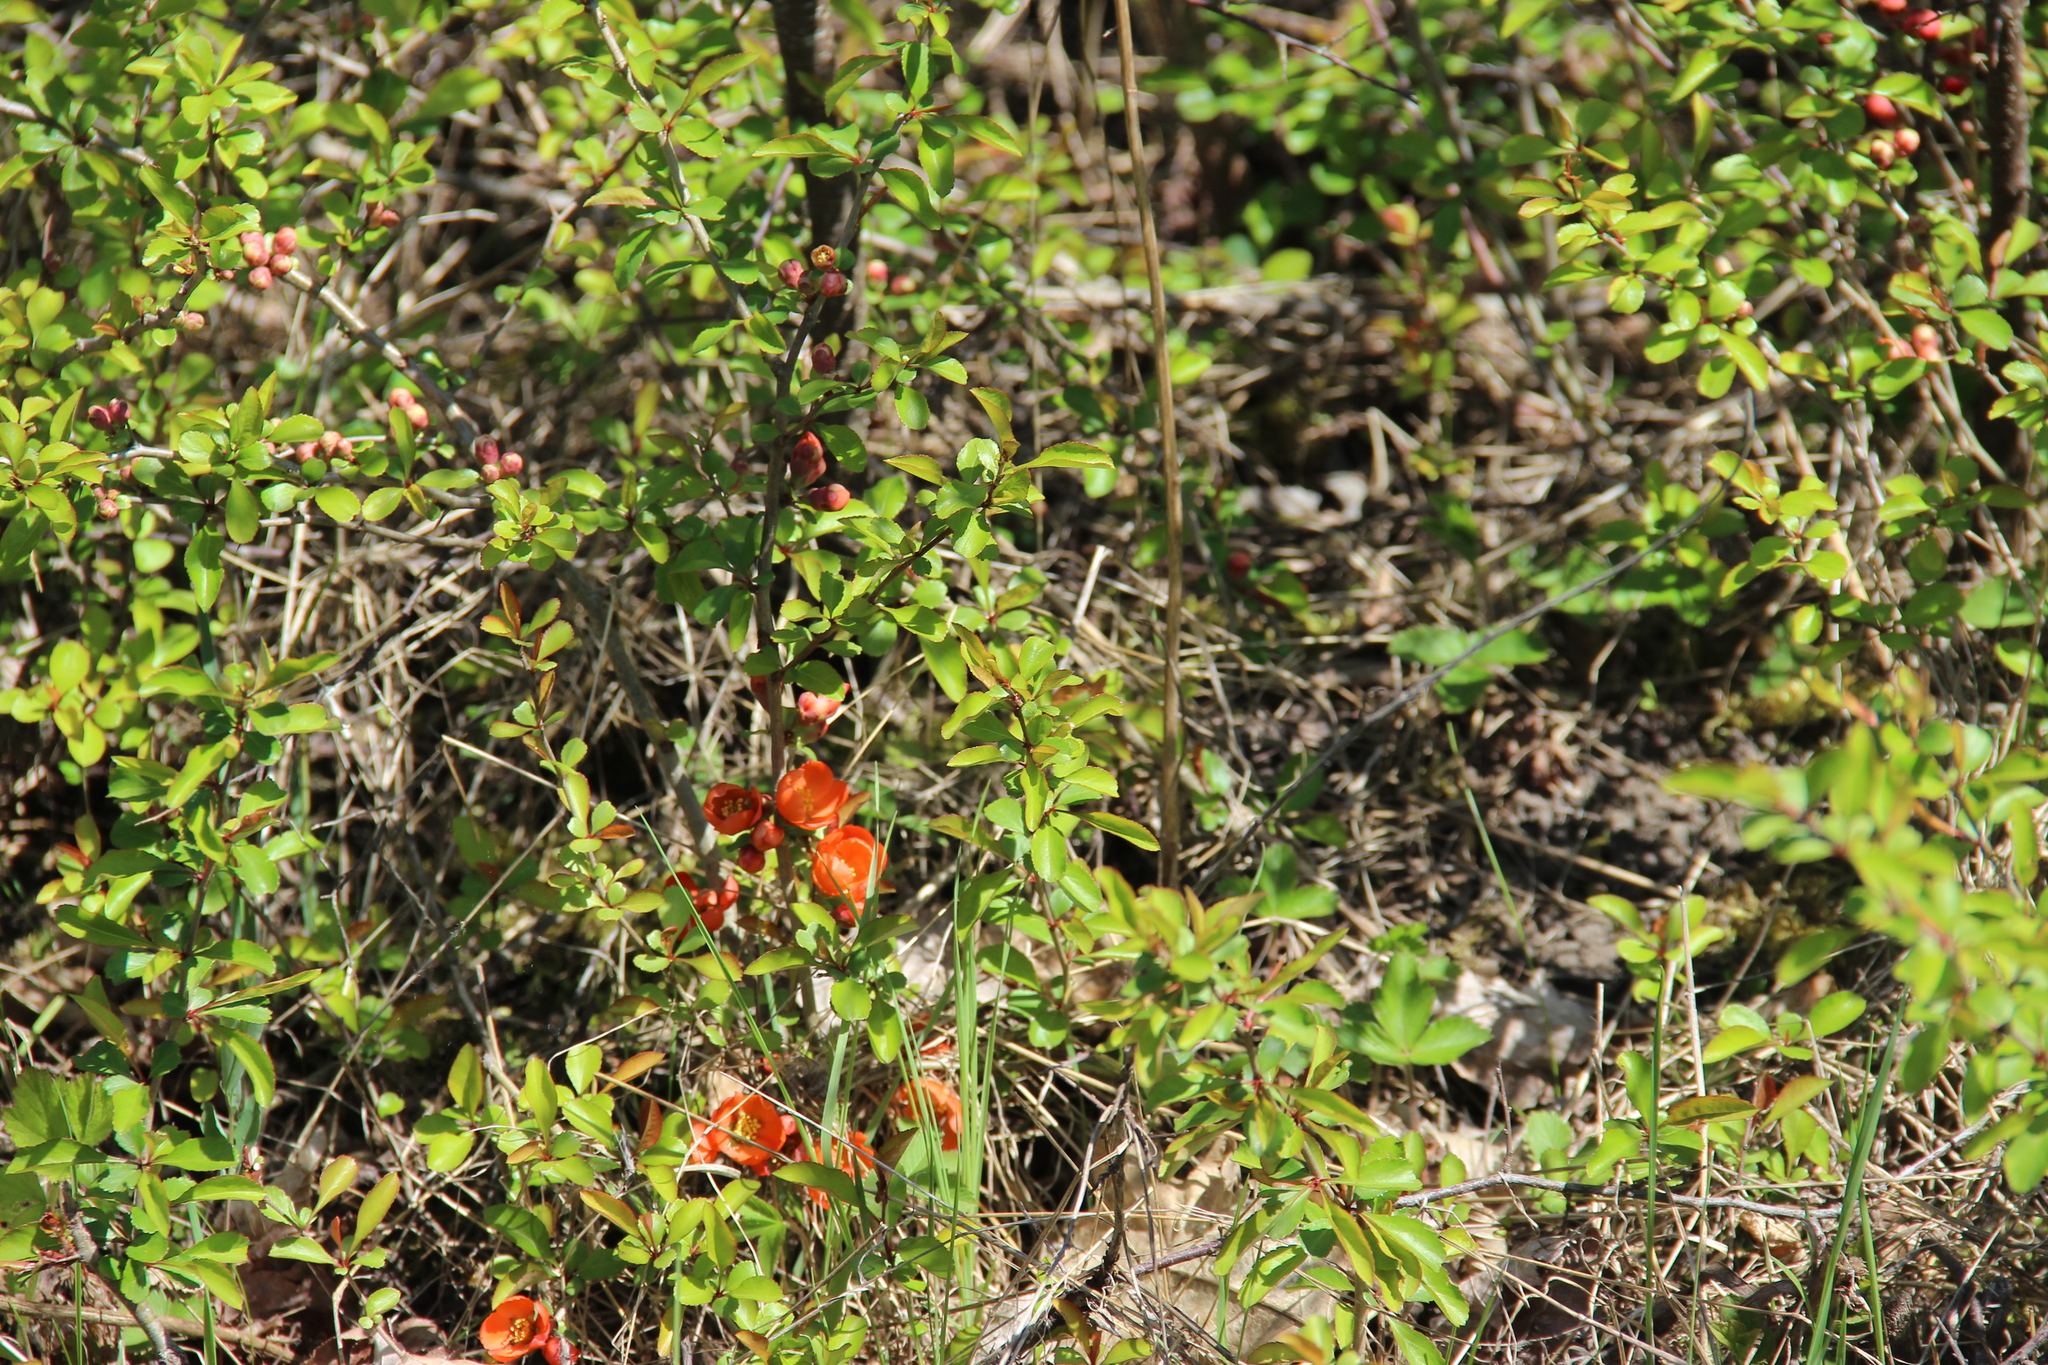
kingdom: Plantae
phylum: Tracheophyta
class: Magnoliopsida
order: Rosales
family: Rosaceae
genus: Chaenomeles
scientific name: Chaenomeles japonica
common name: Japanese quince
